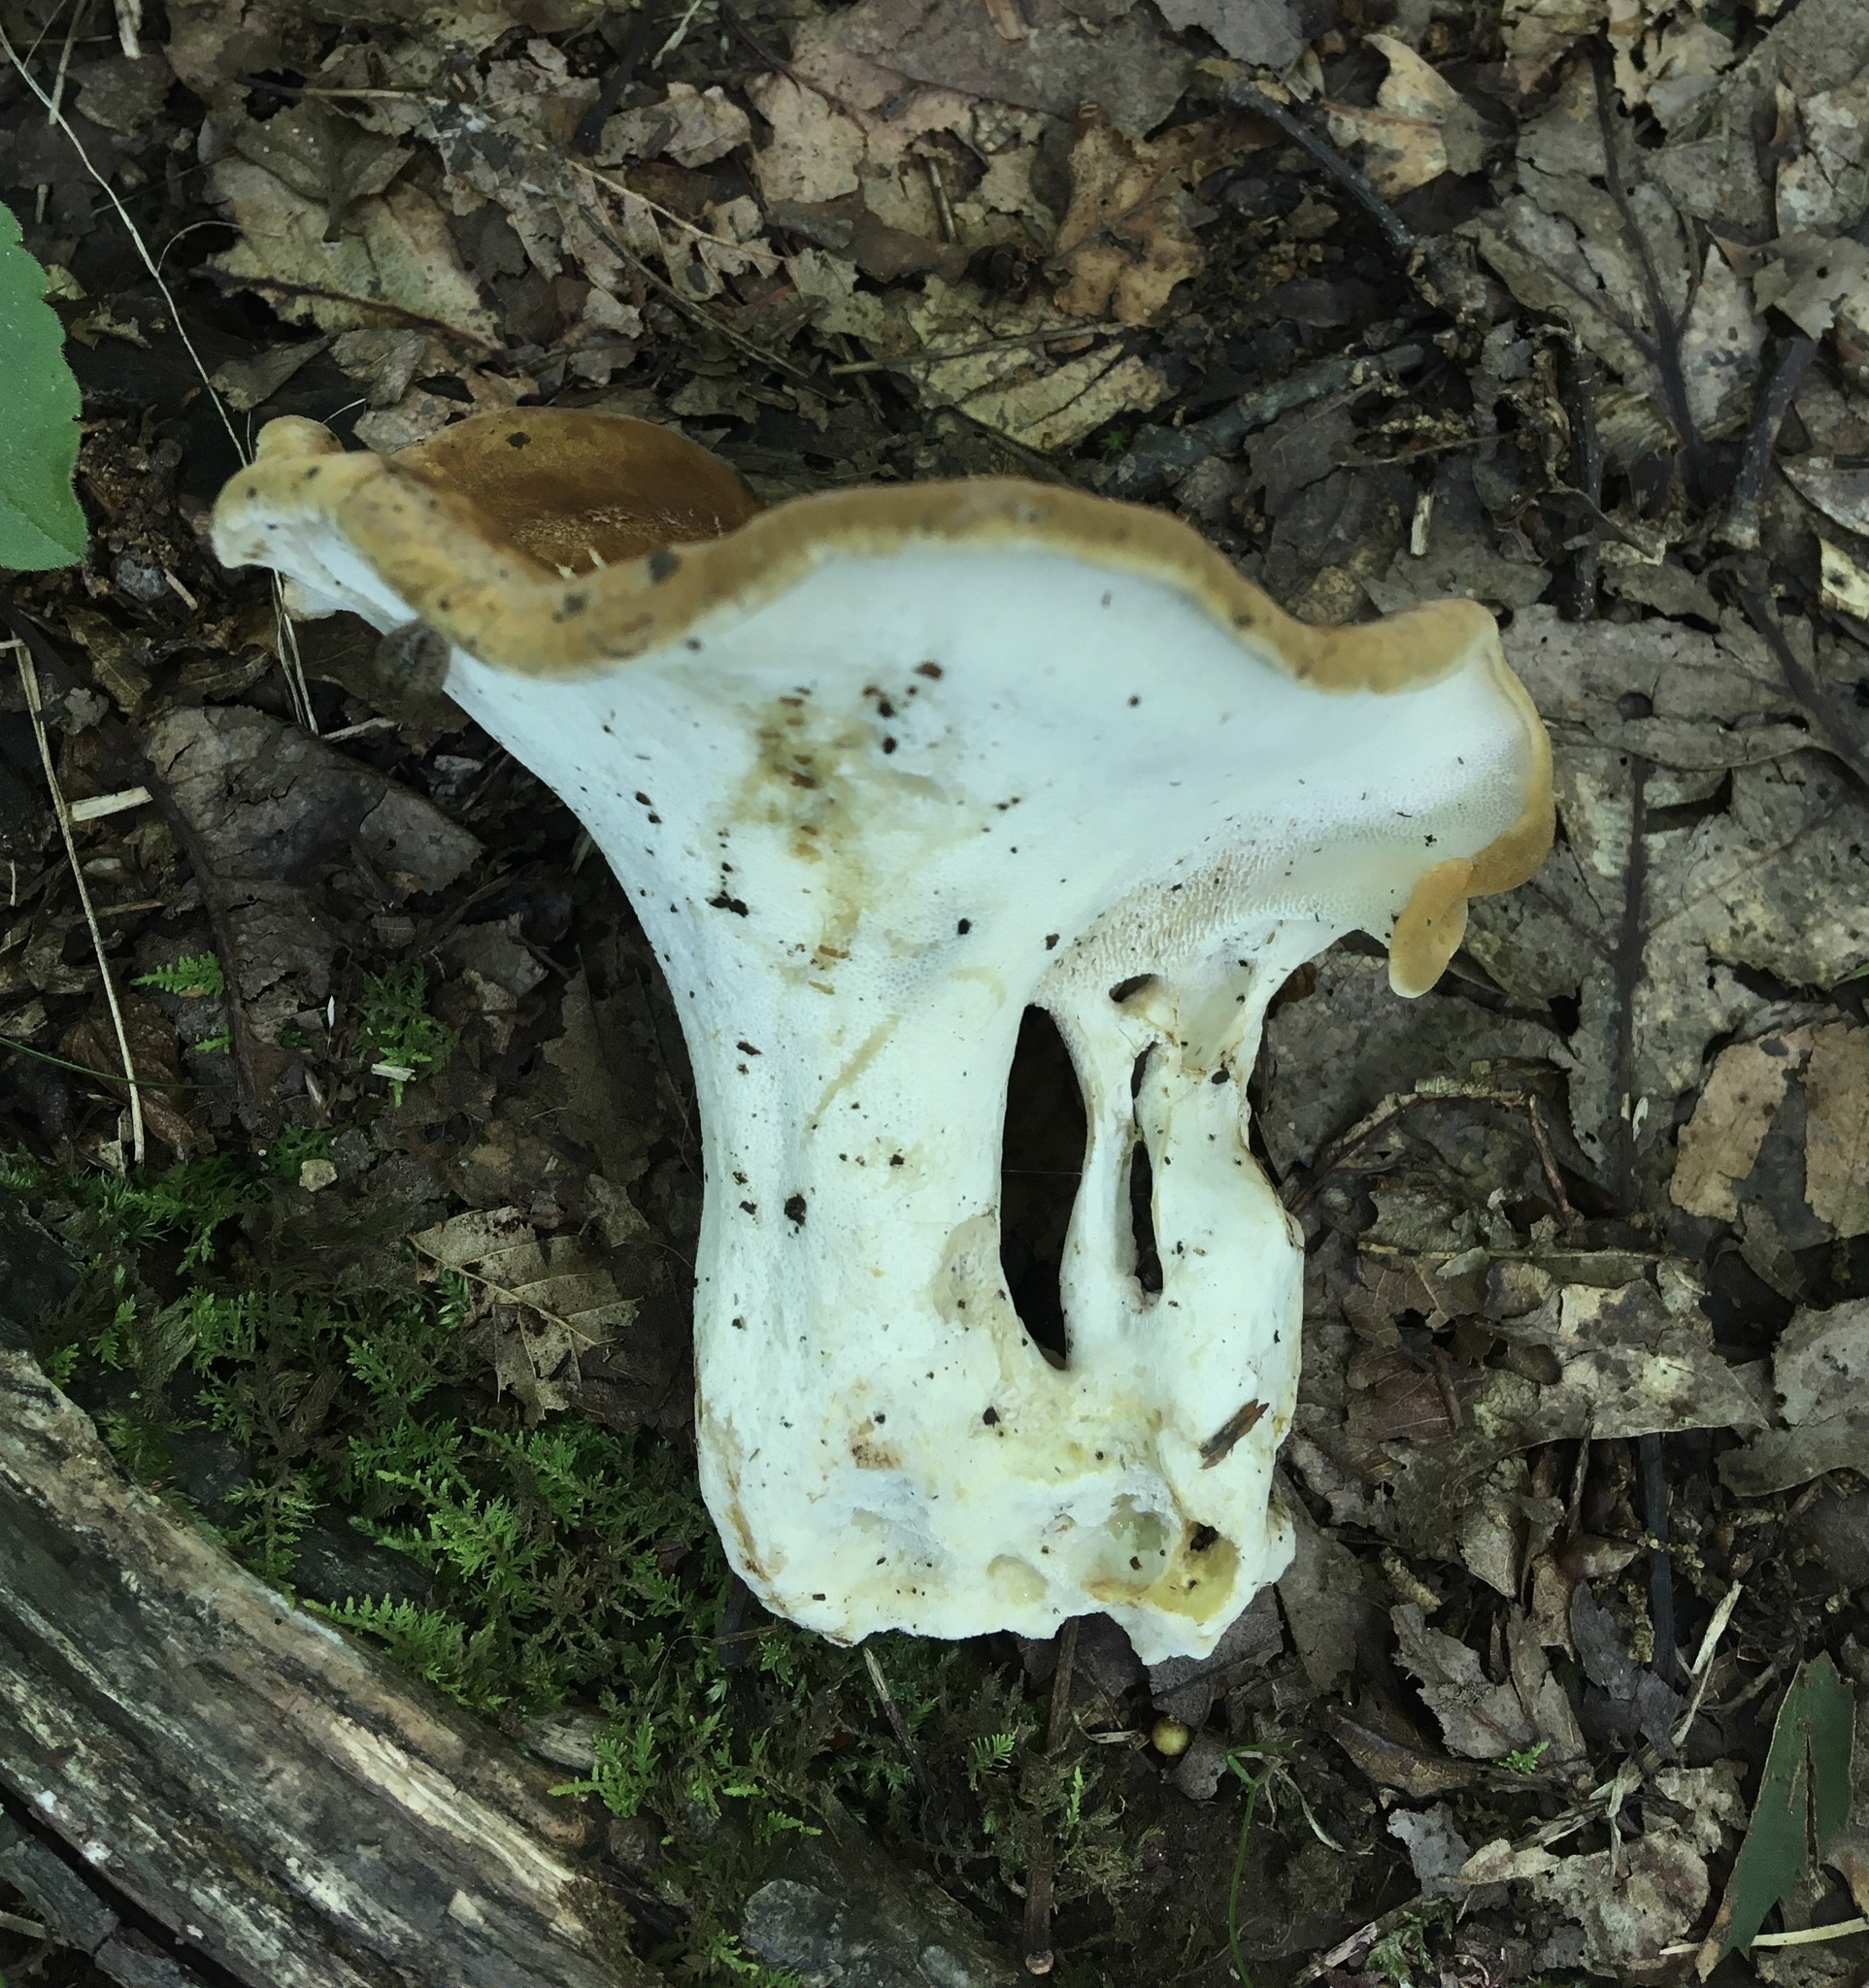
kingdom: Fungi
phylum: Basidiomycota
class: Agaricomycetes
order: Russulales
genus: Laeticutis
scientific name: Laeticutis cristata
